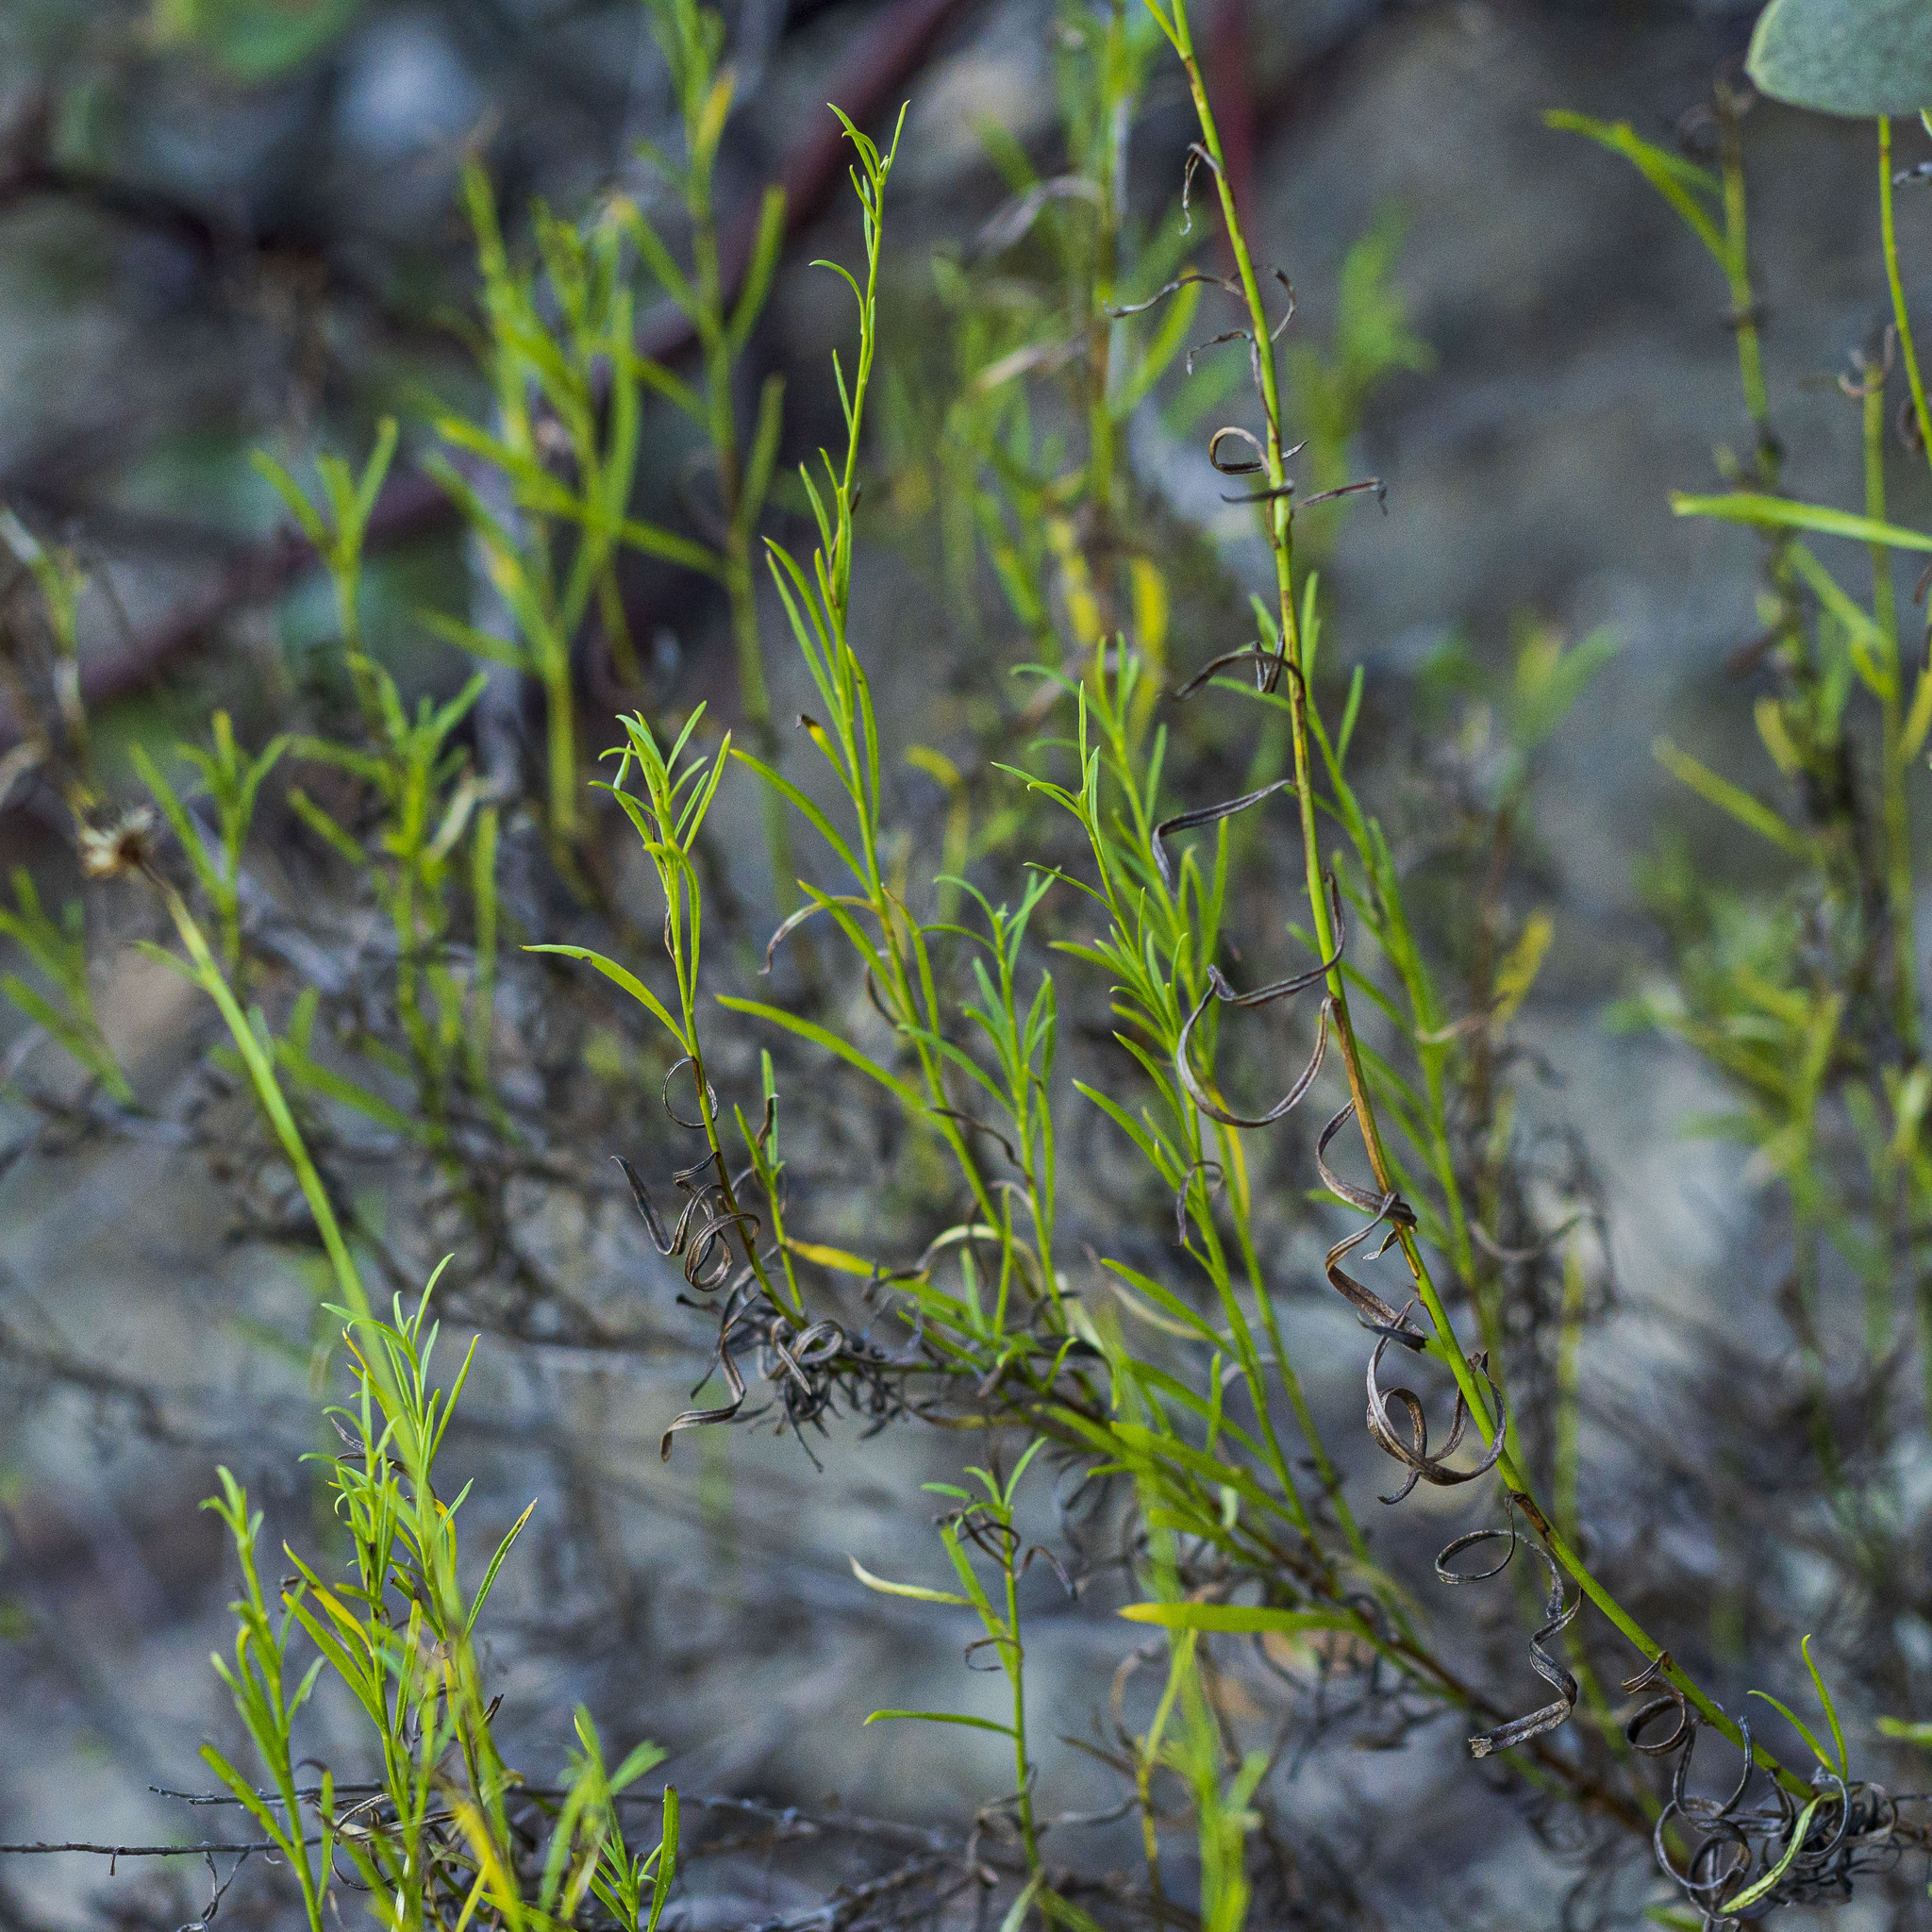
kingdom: Plantae
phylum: Tracheophyta
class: Magnoliopsida
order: Asterales
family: Asteraceae
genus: Baccharis
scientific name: Baccharis vanessae
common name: Encinitas baccharis
